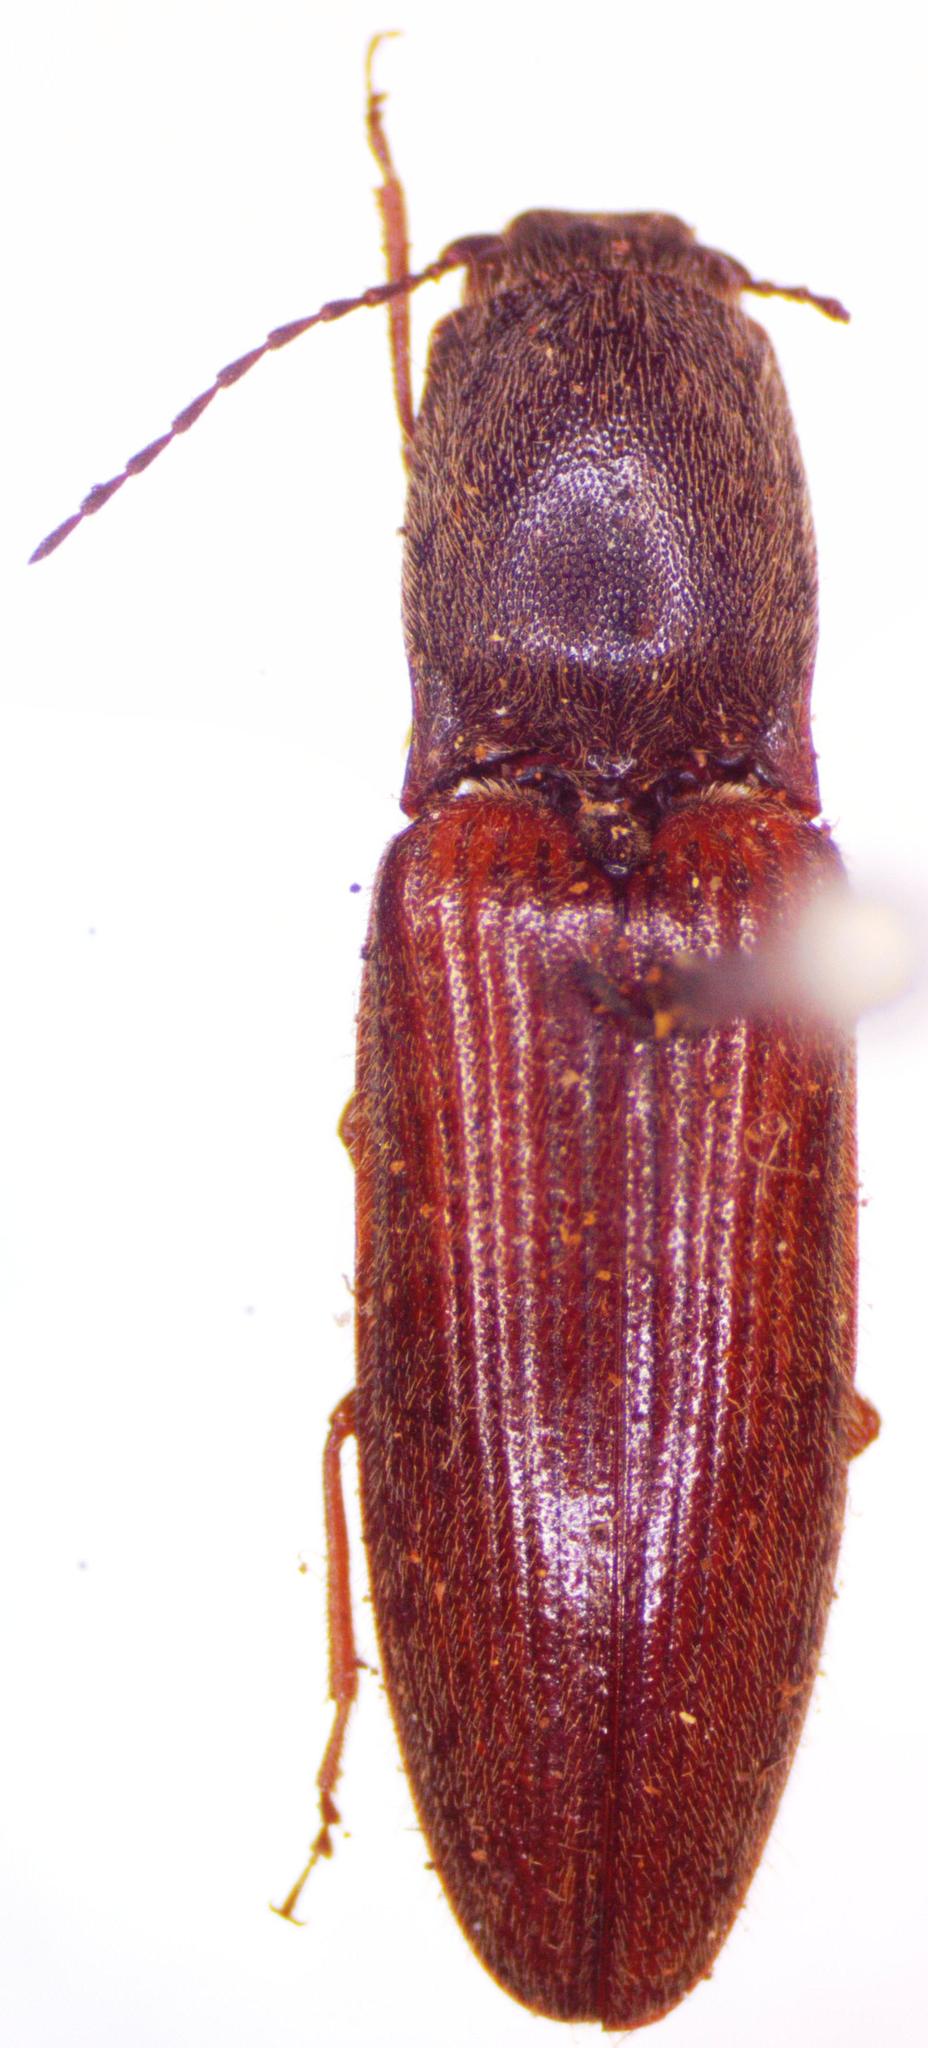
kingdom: Animalia
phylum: Arthropoda
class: Insecta
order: Coleoptera
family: Elateridae
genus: Athous
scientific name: Athous haemorrhoidalis
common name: Red-brown click beetle
